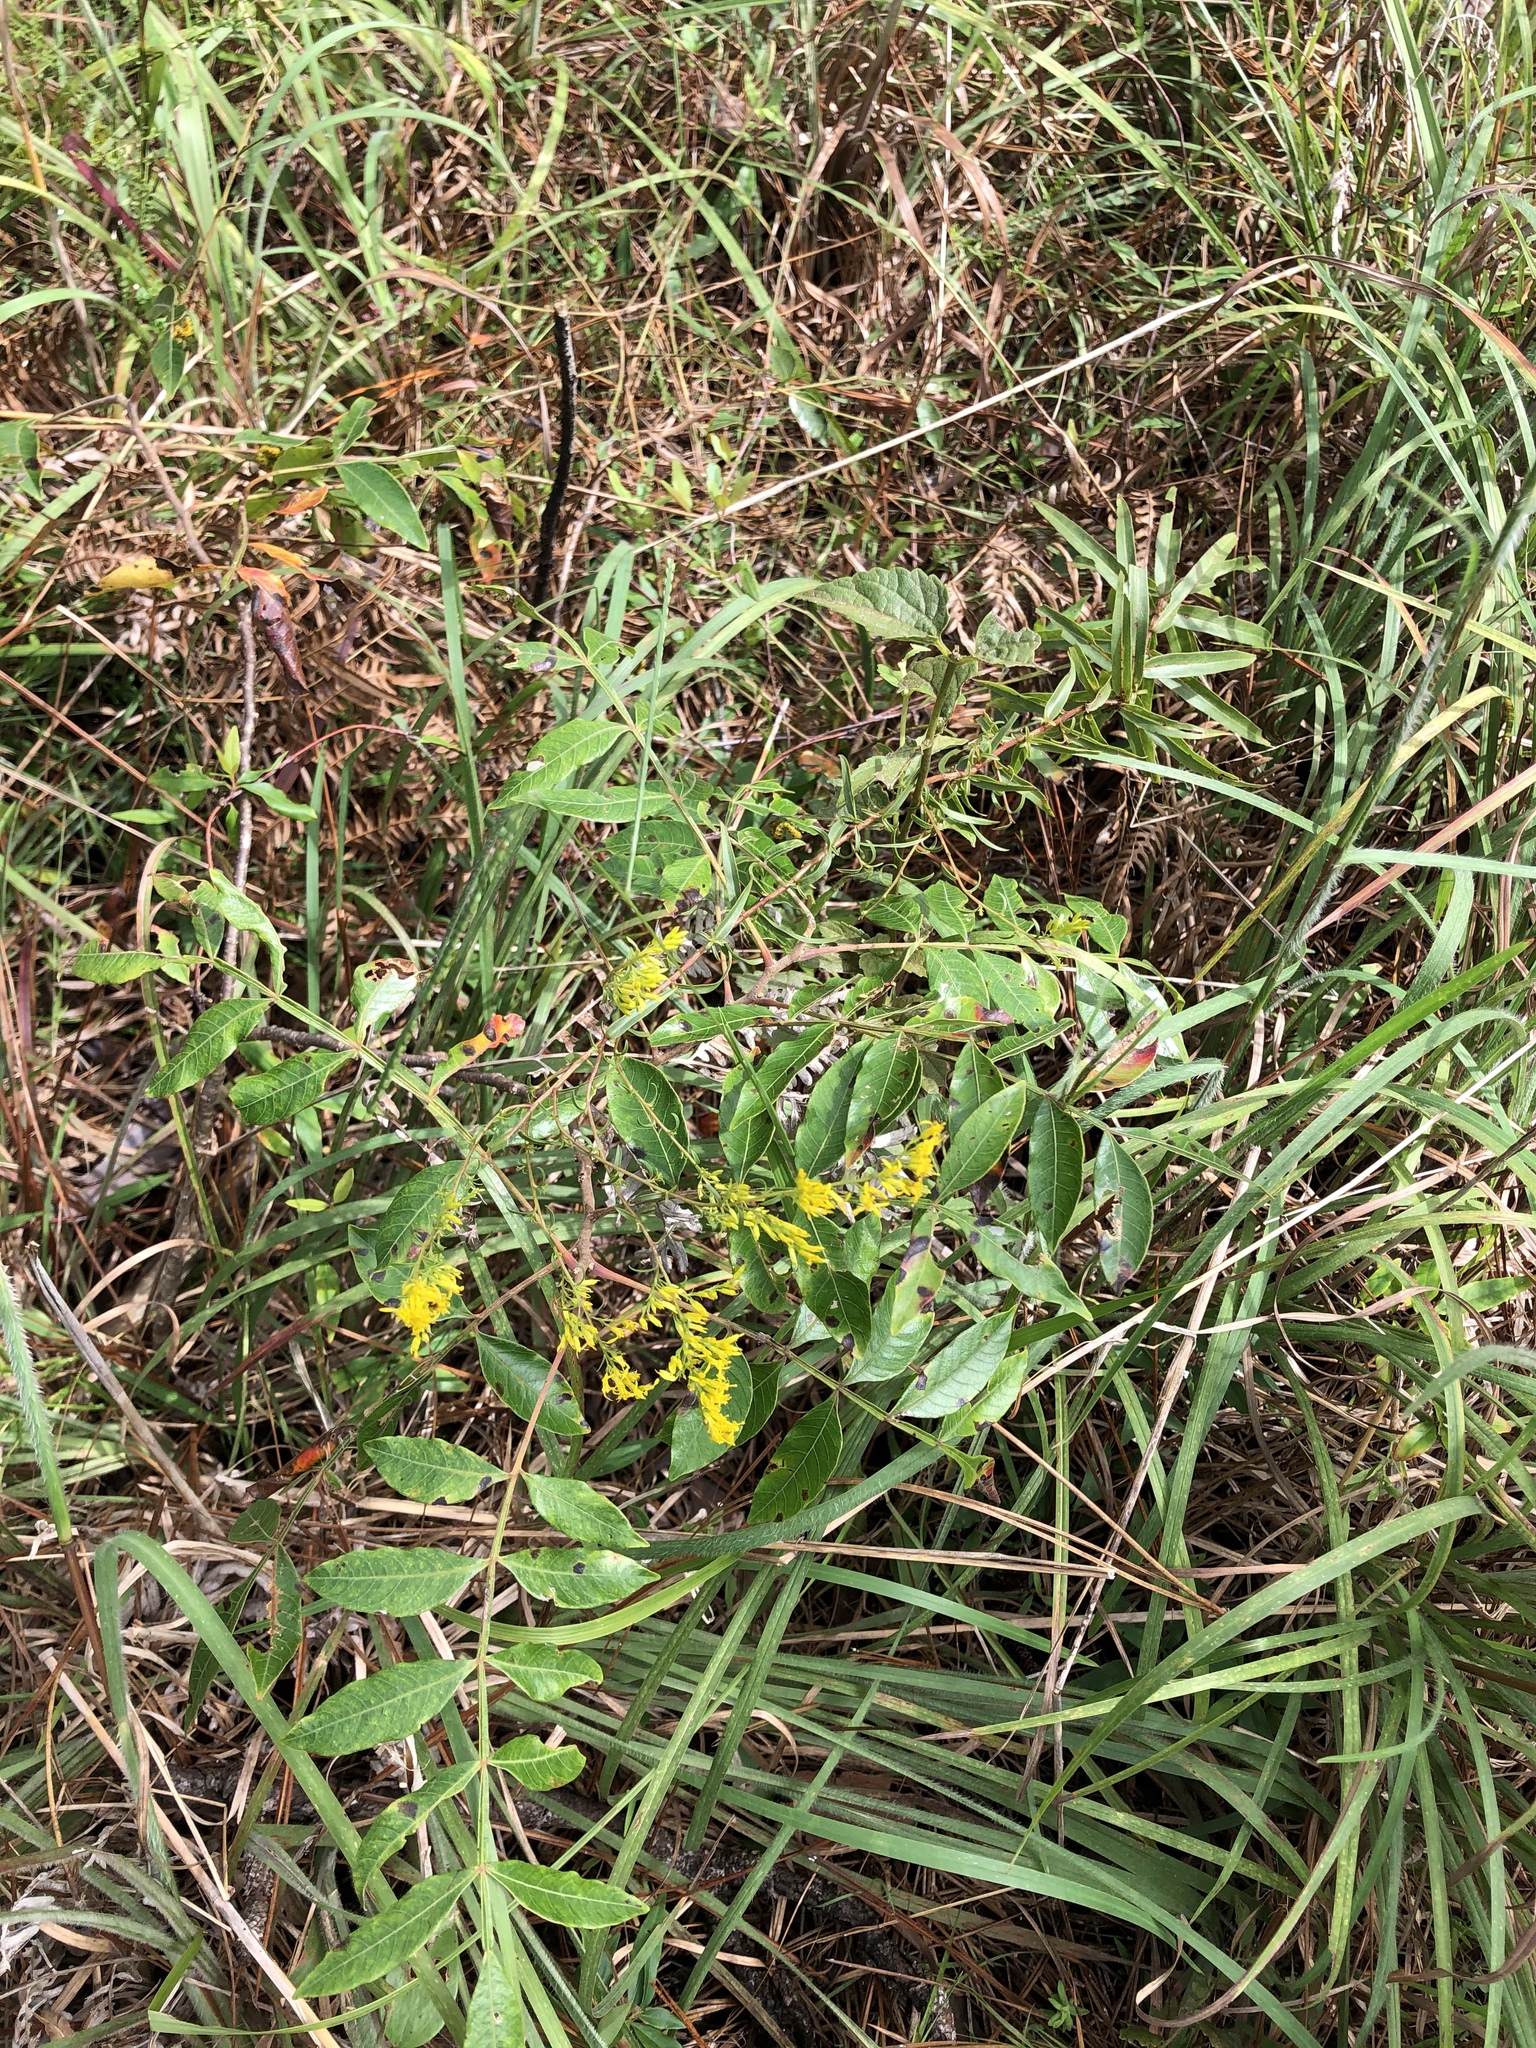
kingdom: Plantae
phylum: Tracheophyta
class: Magnoliopsida
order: Asterales
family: Asteraceae
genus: Solidago
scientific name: Solidago odora
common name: Anise-scented goldenrod
